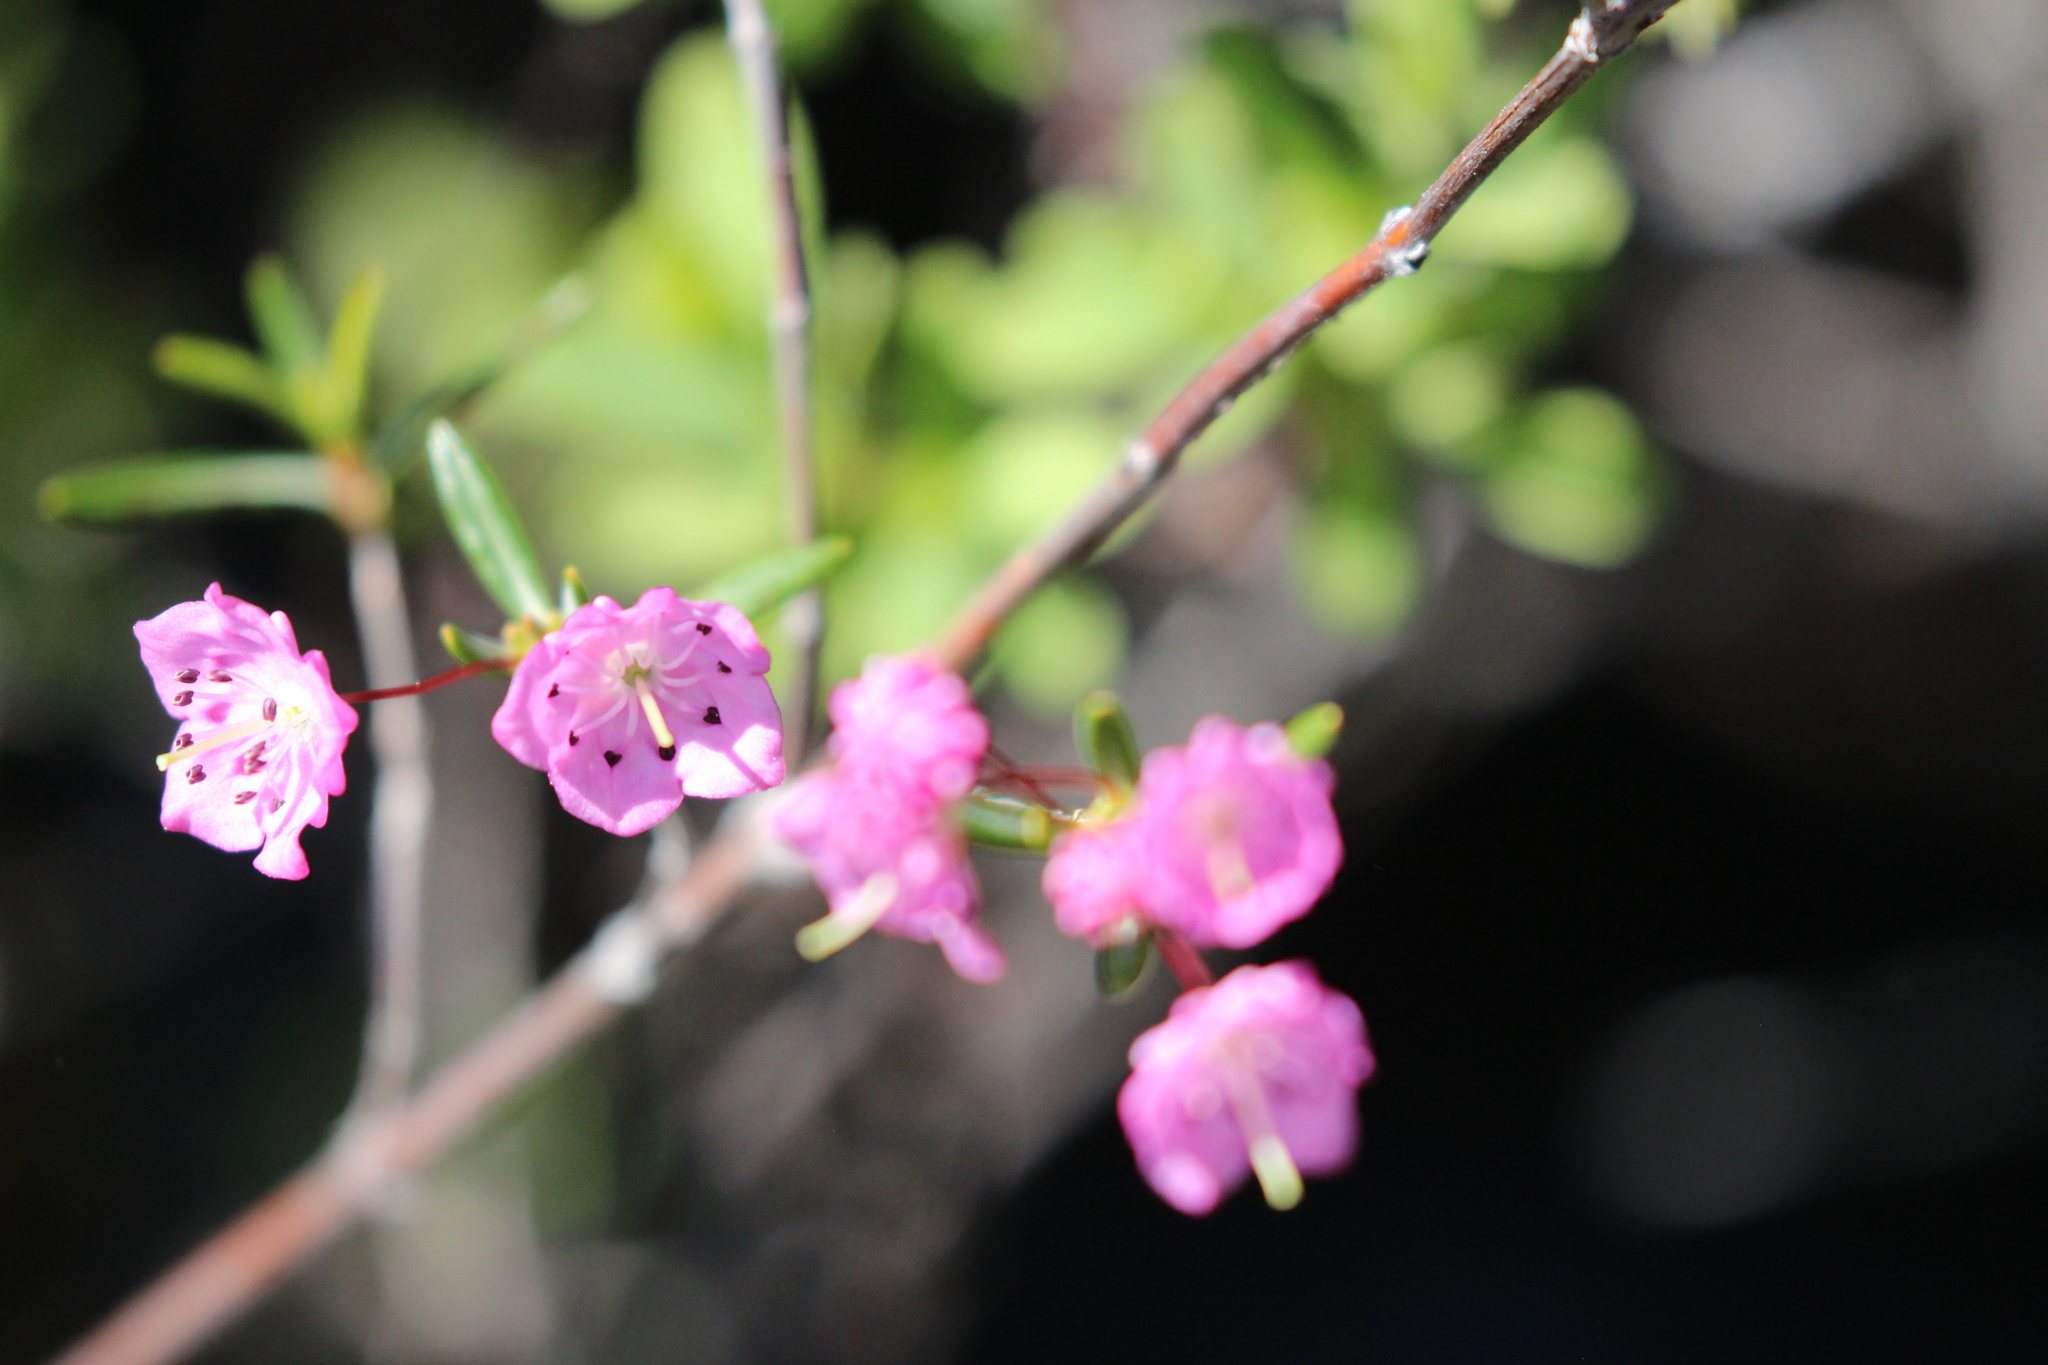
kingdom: Plantae
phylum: Tracheophyta
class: Magnoliopsida
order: Ericales
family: Ericaceae
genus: Kalmia
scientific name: Kalmia polifolia
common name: Bog-laurel
